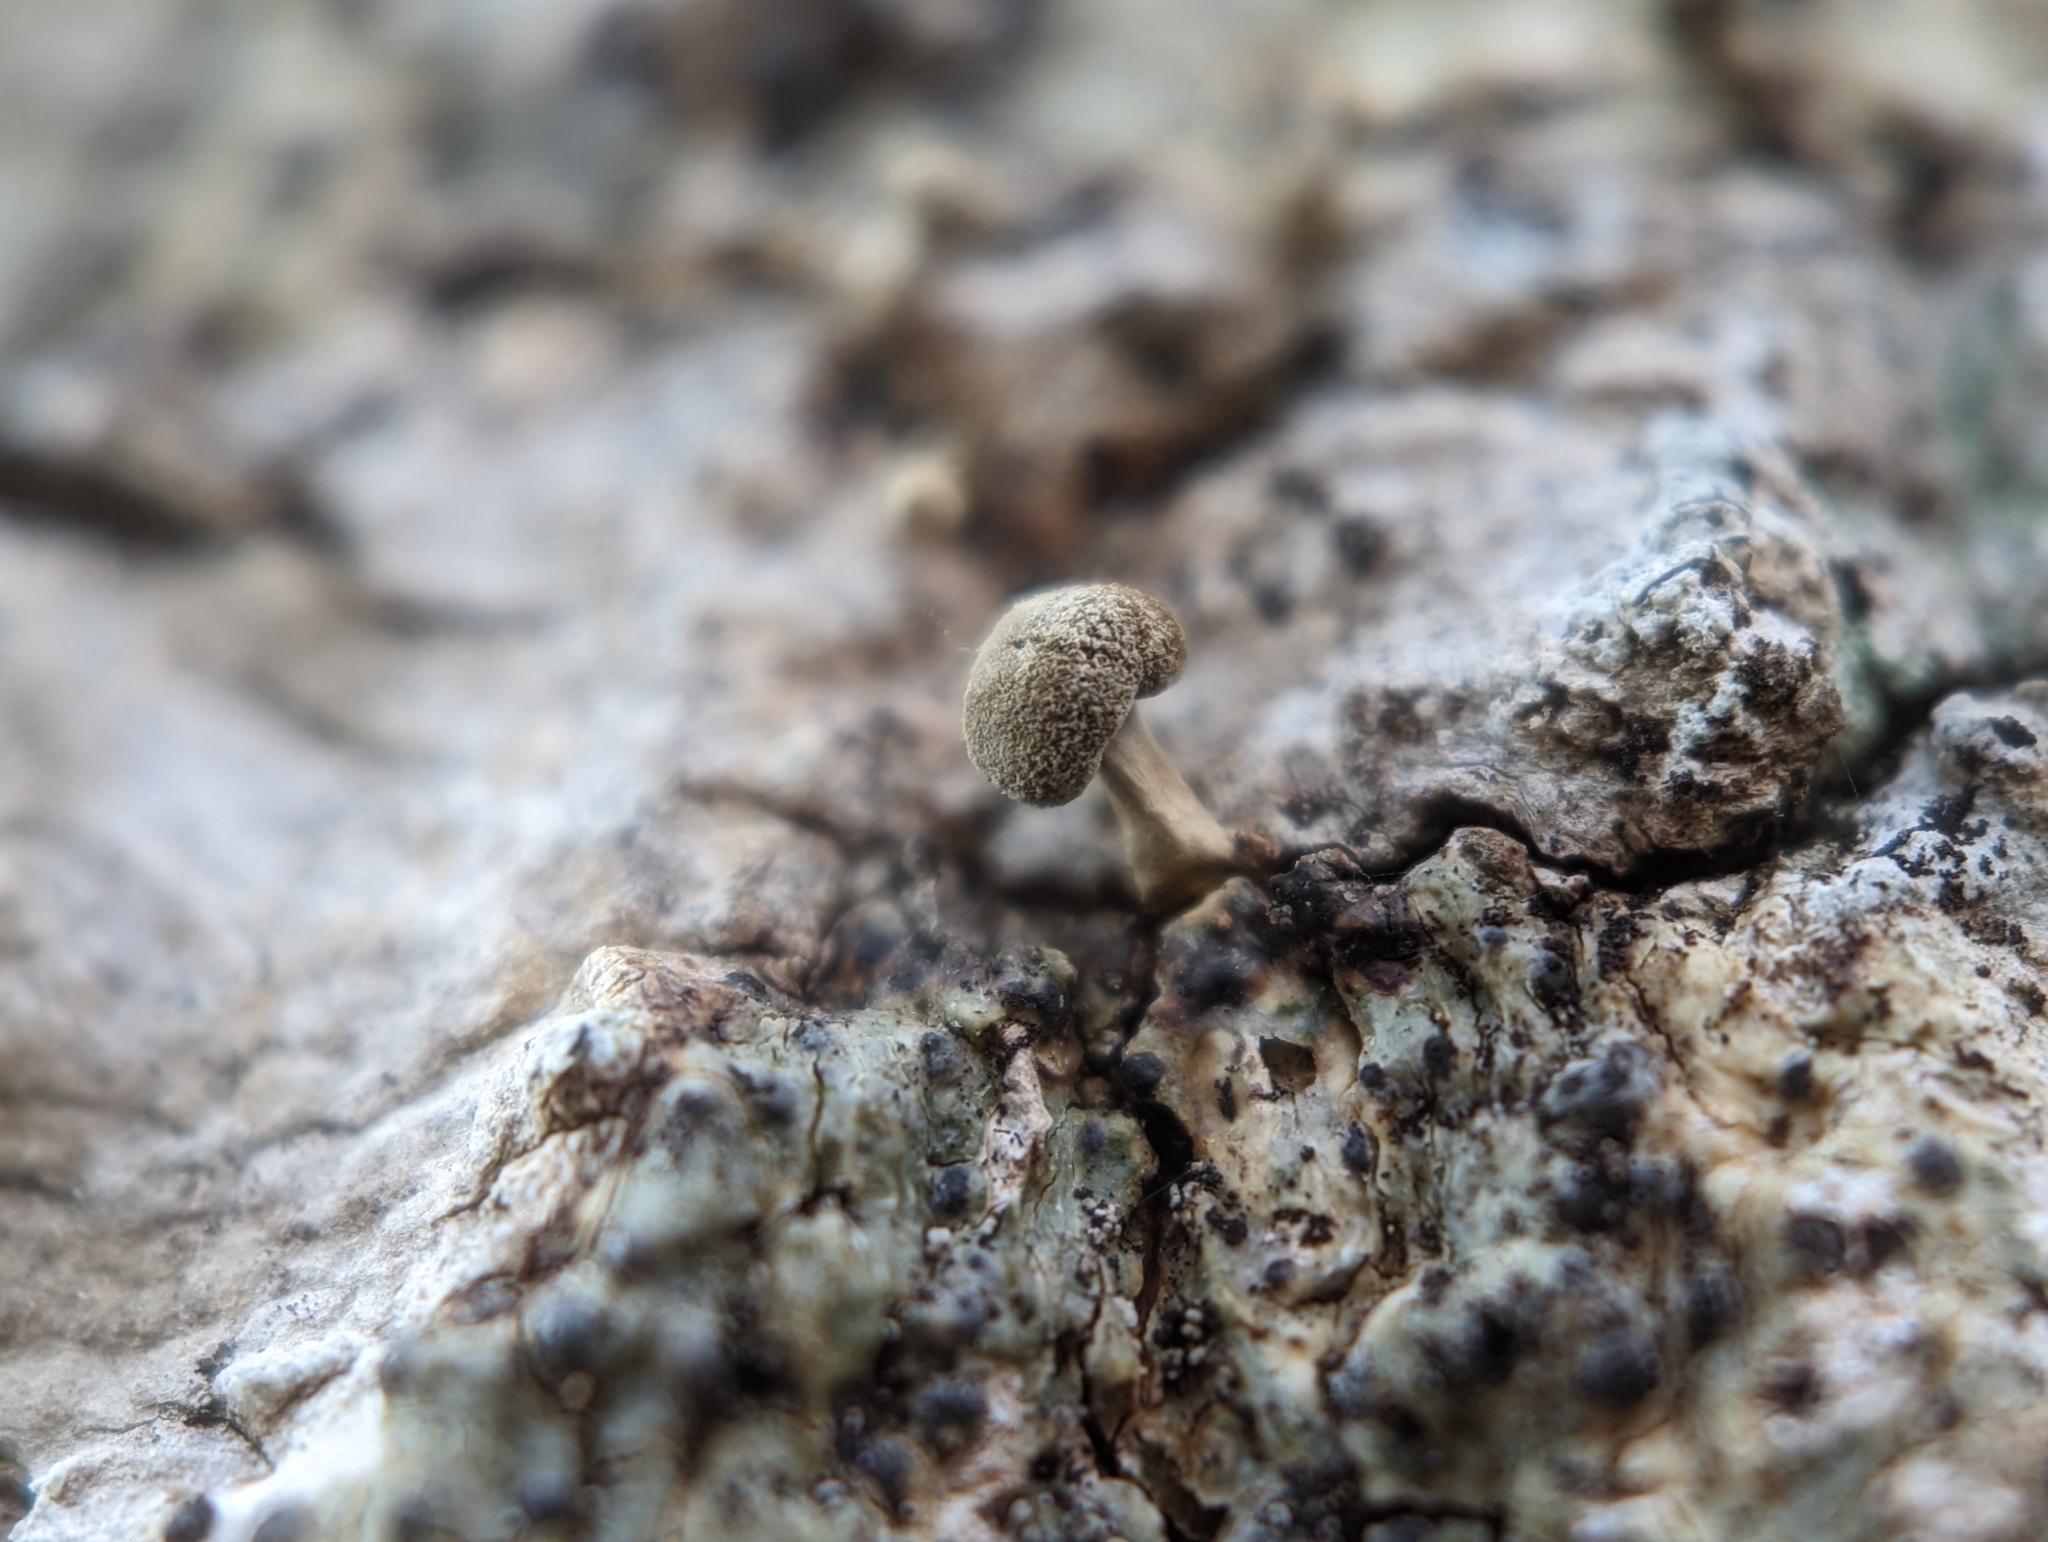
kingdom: Fungi
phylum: Basidiomycota
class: Atractiellomycetes
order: Atractiellales
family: Phleogenaceae
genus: Phleogena
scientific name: Phleogena faginea
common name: Fenugreek stalkball
